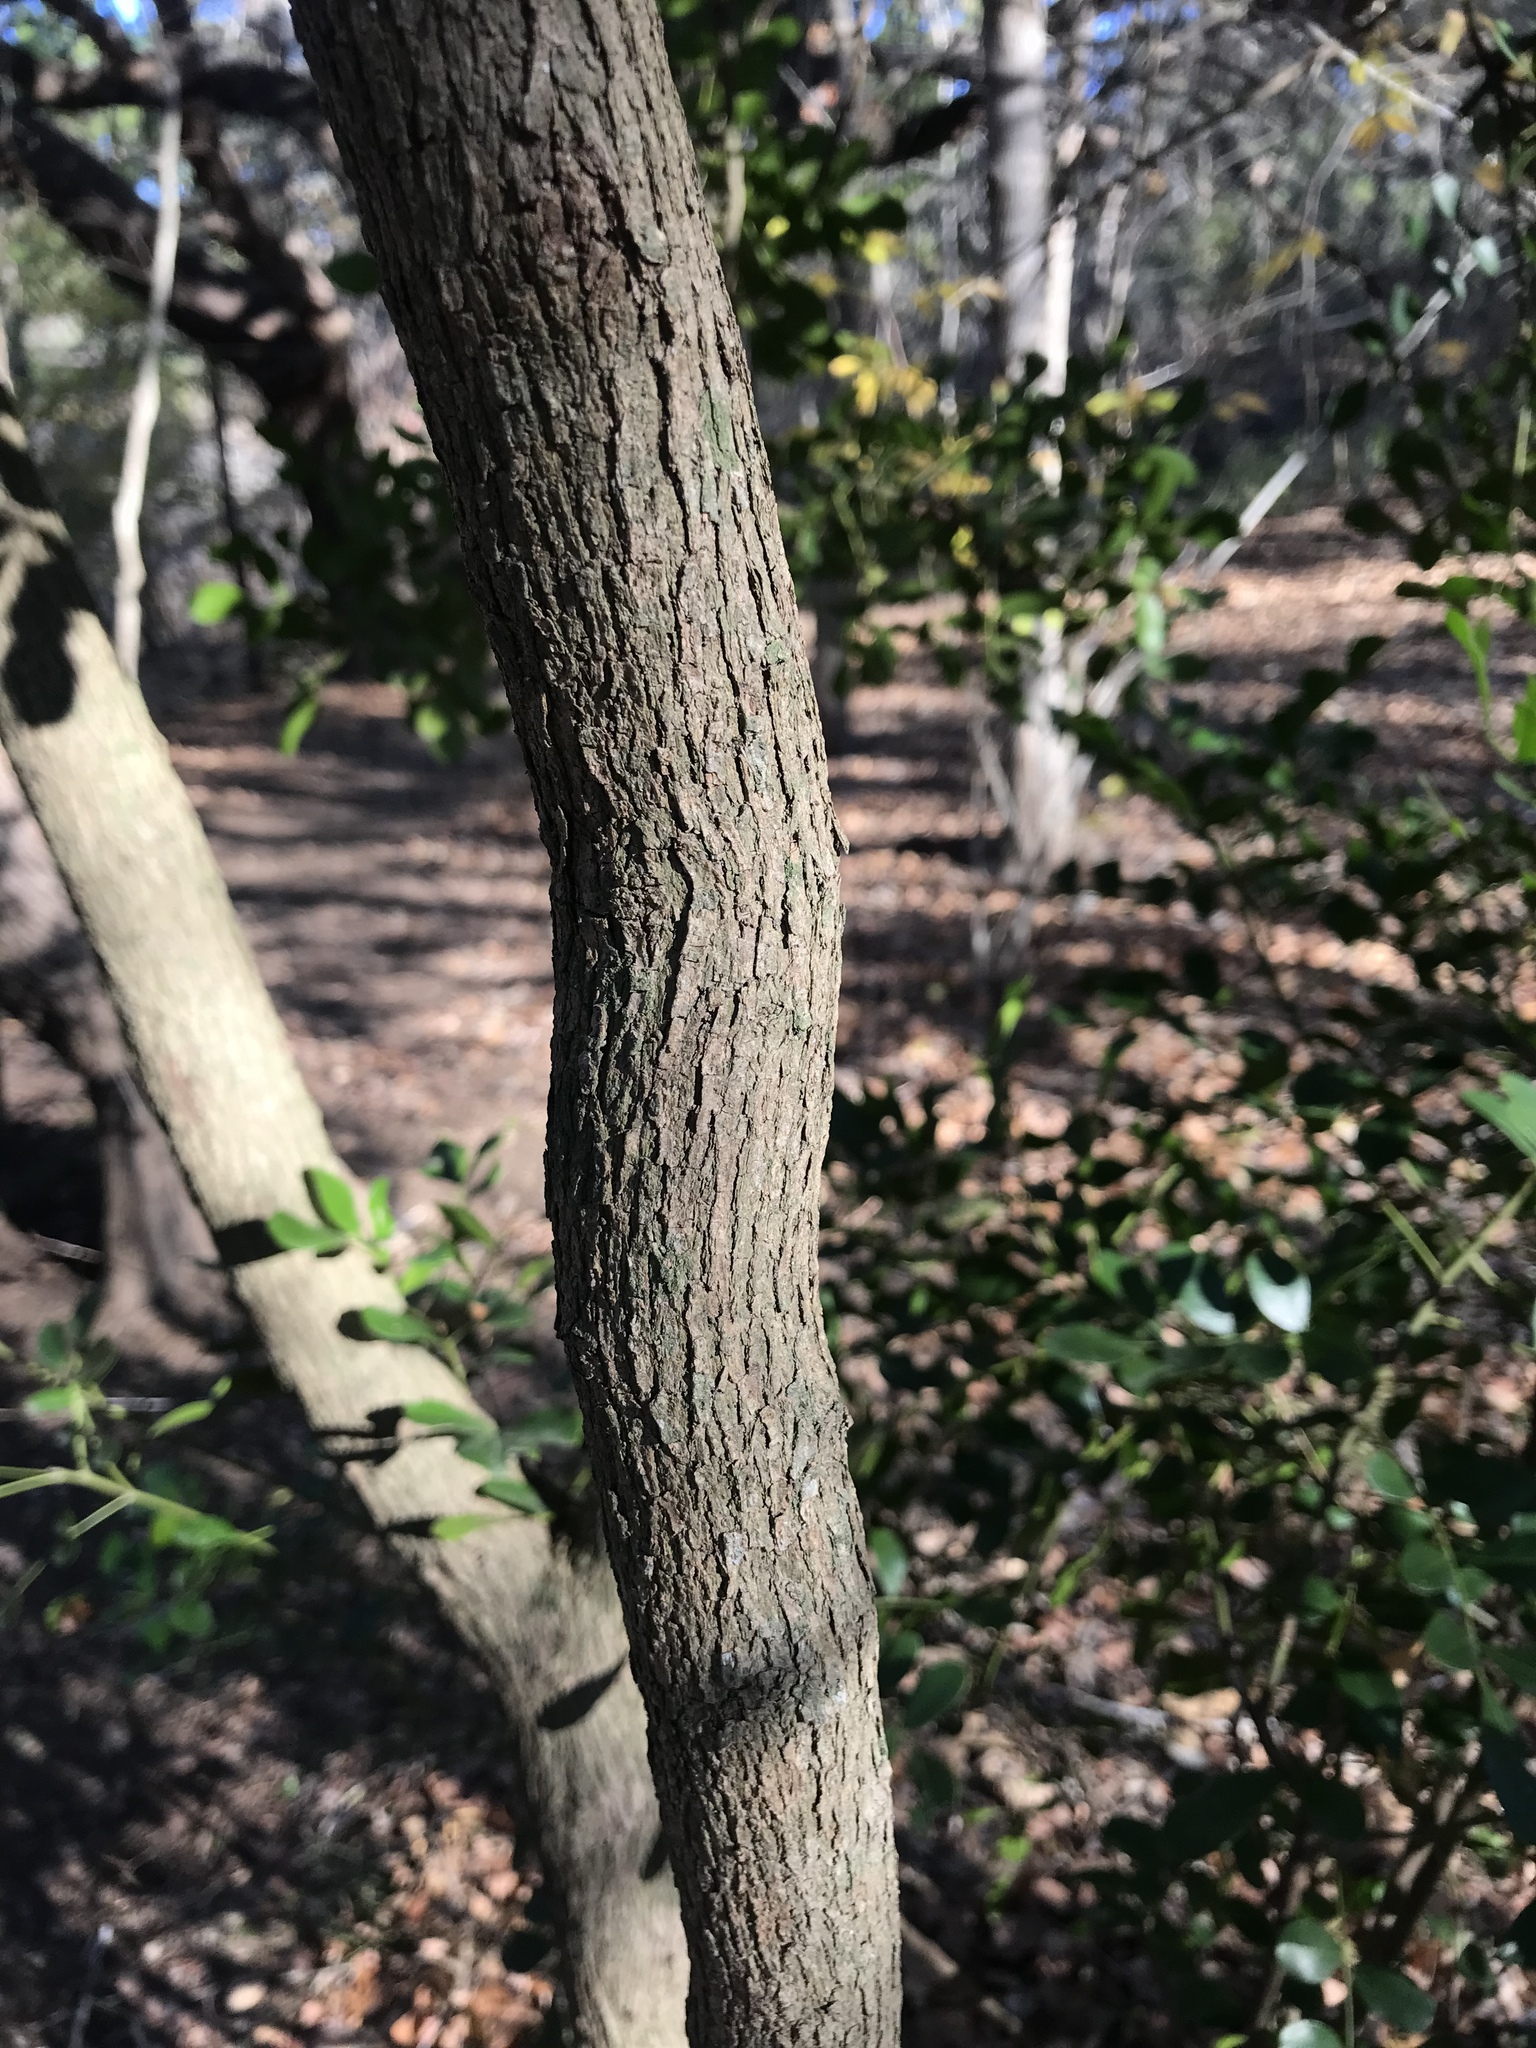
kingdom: Plantae
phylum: Tracheophyta
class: Magnoliopsida
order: Fabales
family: Fabaceae
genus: Dermatophyllum
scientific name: Dermatophyllum secundiflorum
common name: Texas-mountain-laurel
